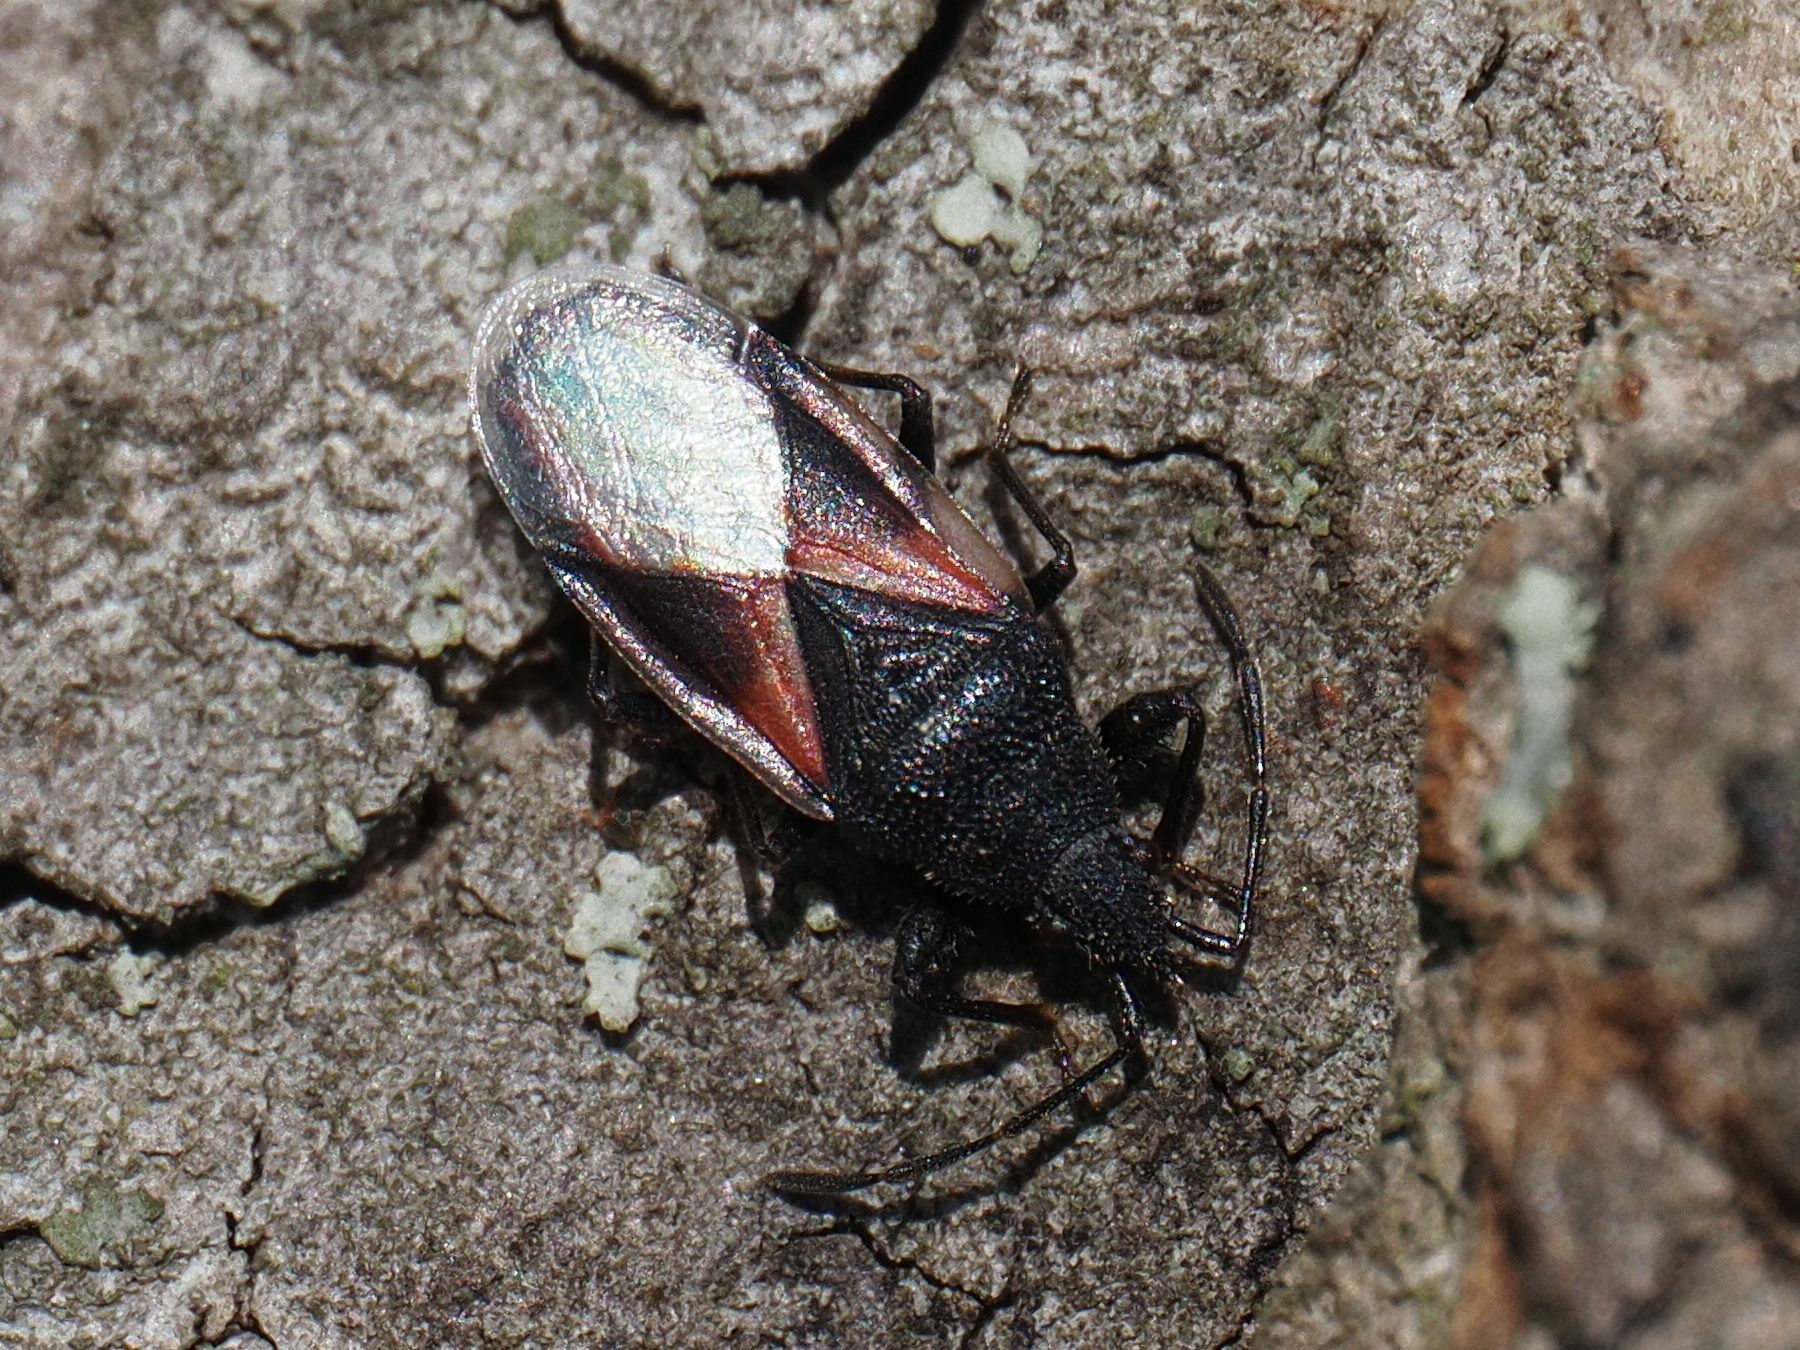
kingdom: Animalia
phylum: Arthropoda
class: Insecta
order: Hemiptera
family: Oxycarenidae
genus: Oxycarenus
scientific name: Oxycarenus lavaterae
